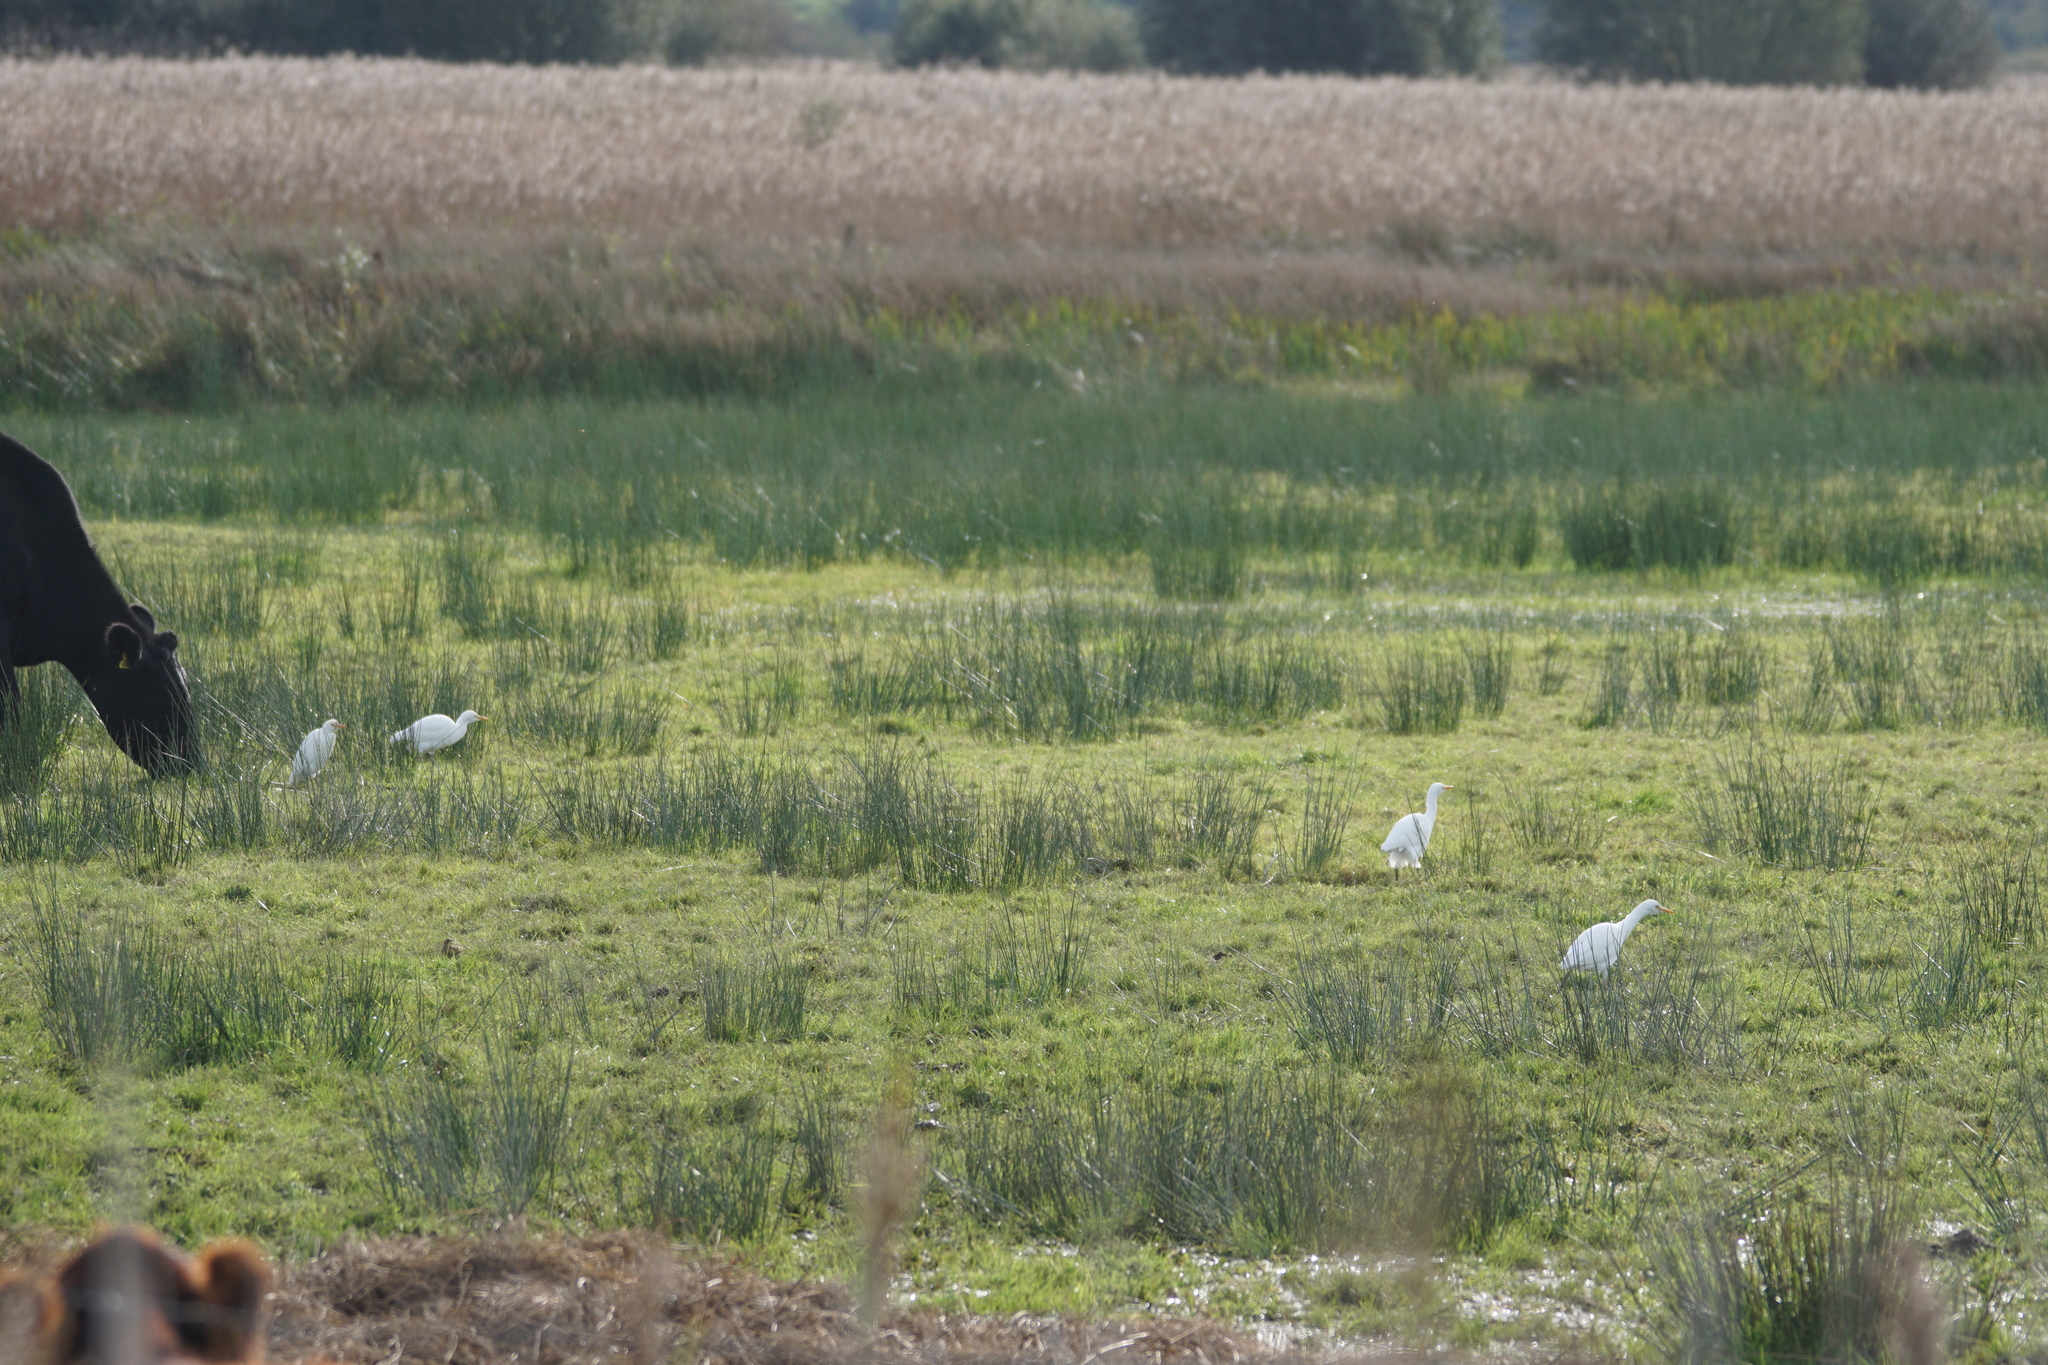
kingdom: Animalia
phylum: Chordata
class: Aves
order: Pelecaniformes
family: Ardeidae
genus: Bubulcus
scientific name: Bubulcus ibis
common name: Cattle egret
